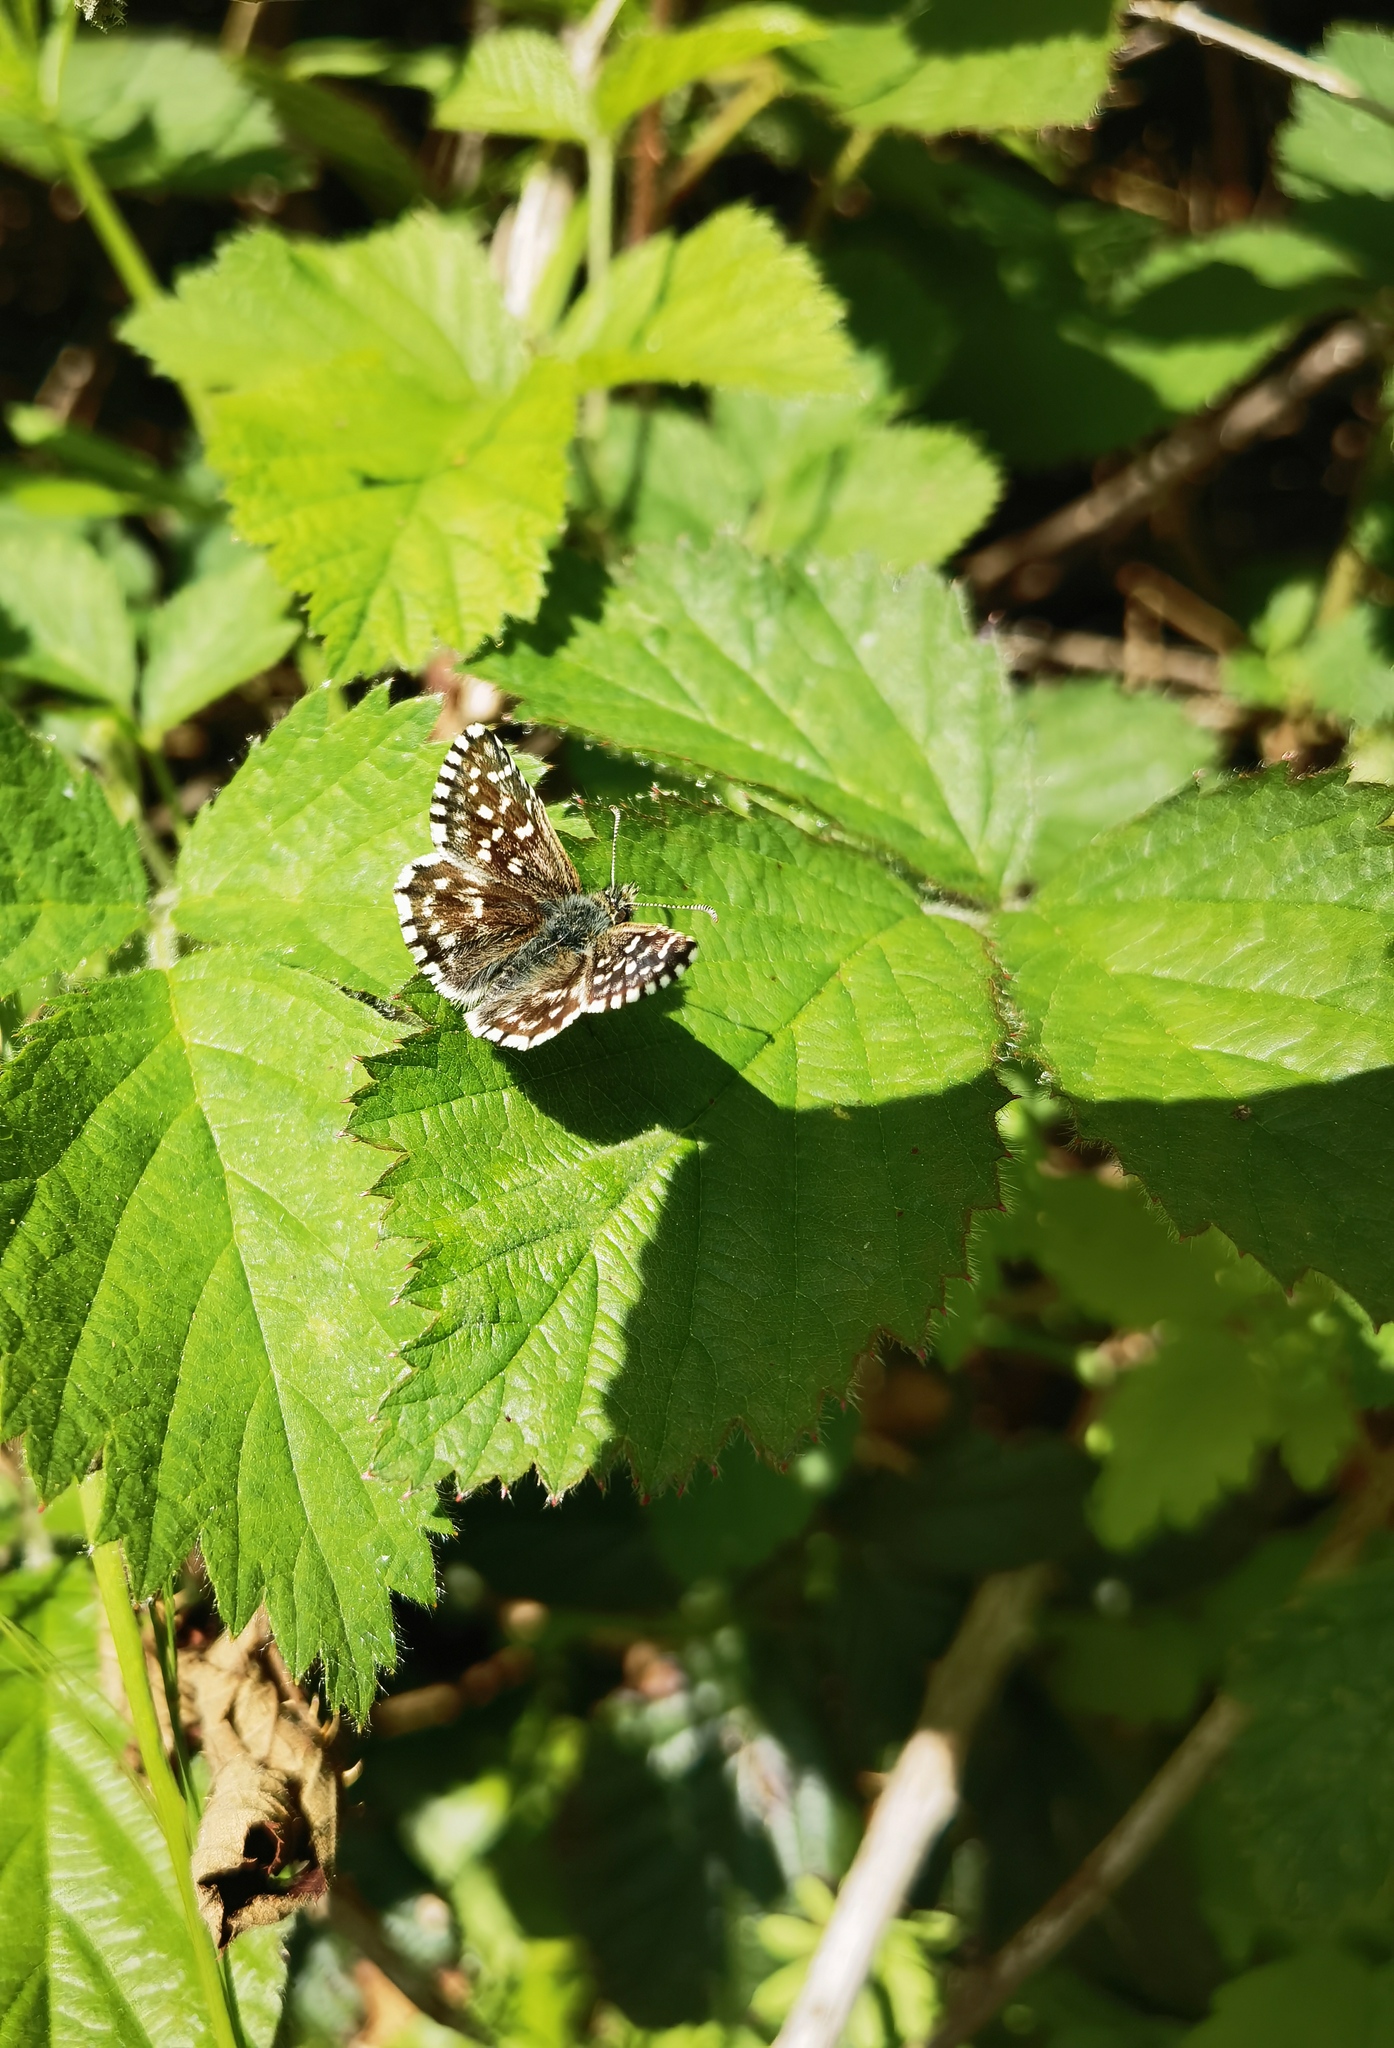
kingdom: Animalia
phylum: Arthropoda
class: Insecta
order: Lepidoptera
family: Hesperiidae
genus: Pyrgus
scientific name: Pyrgus malvae
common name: Grizzled skipper
